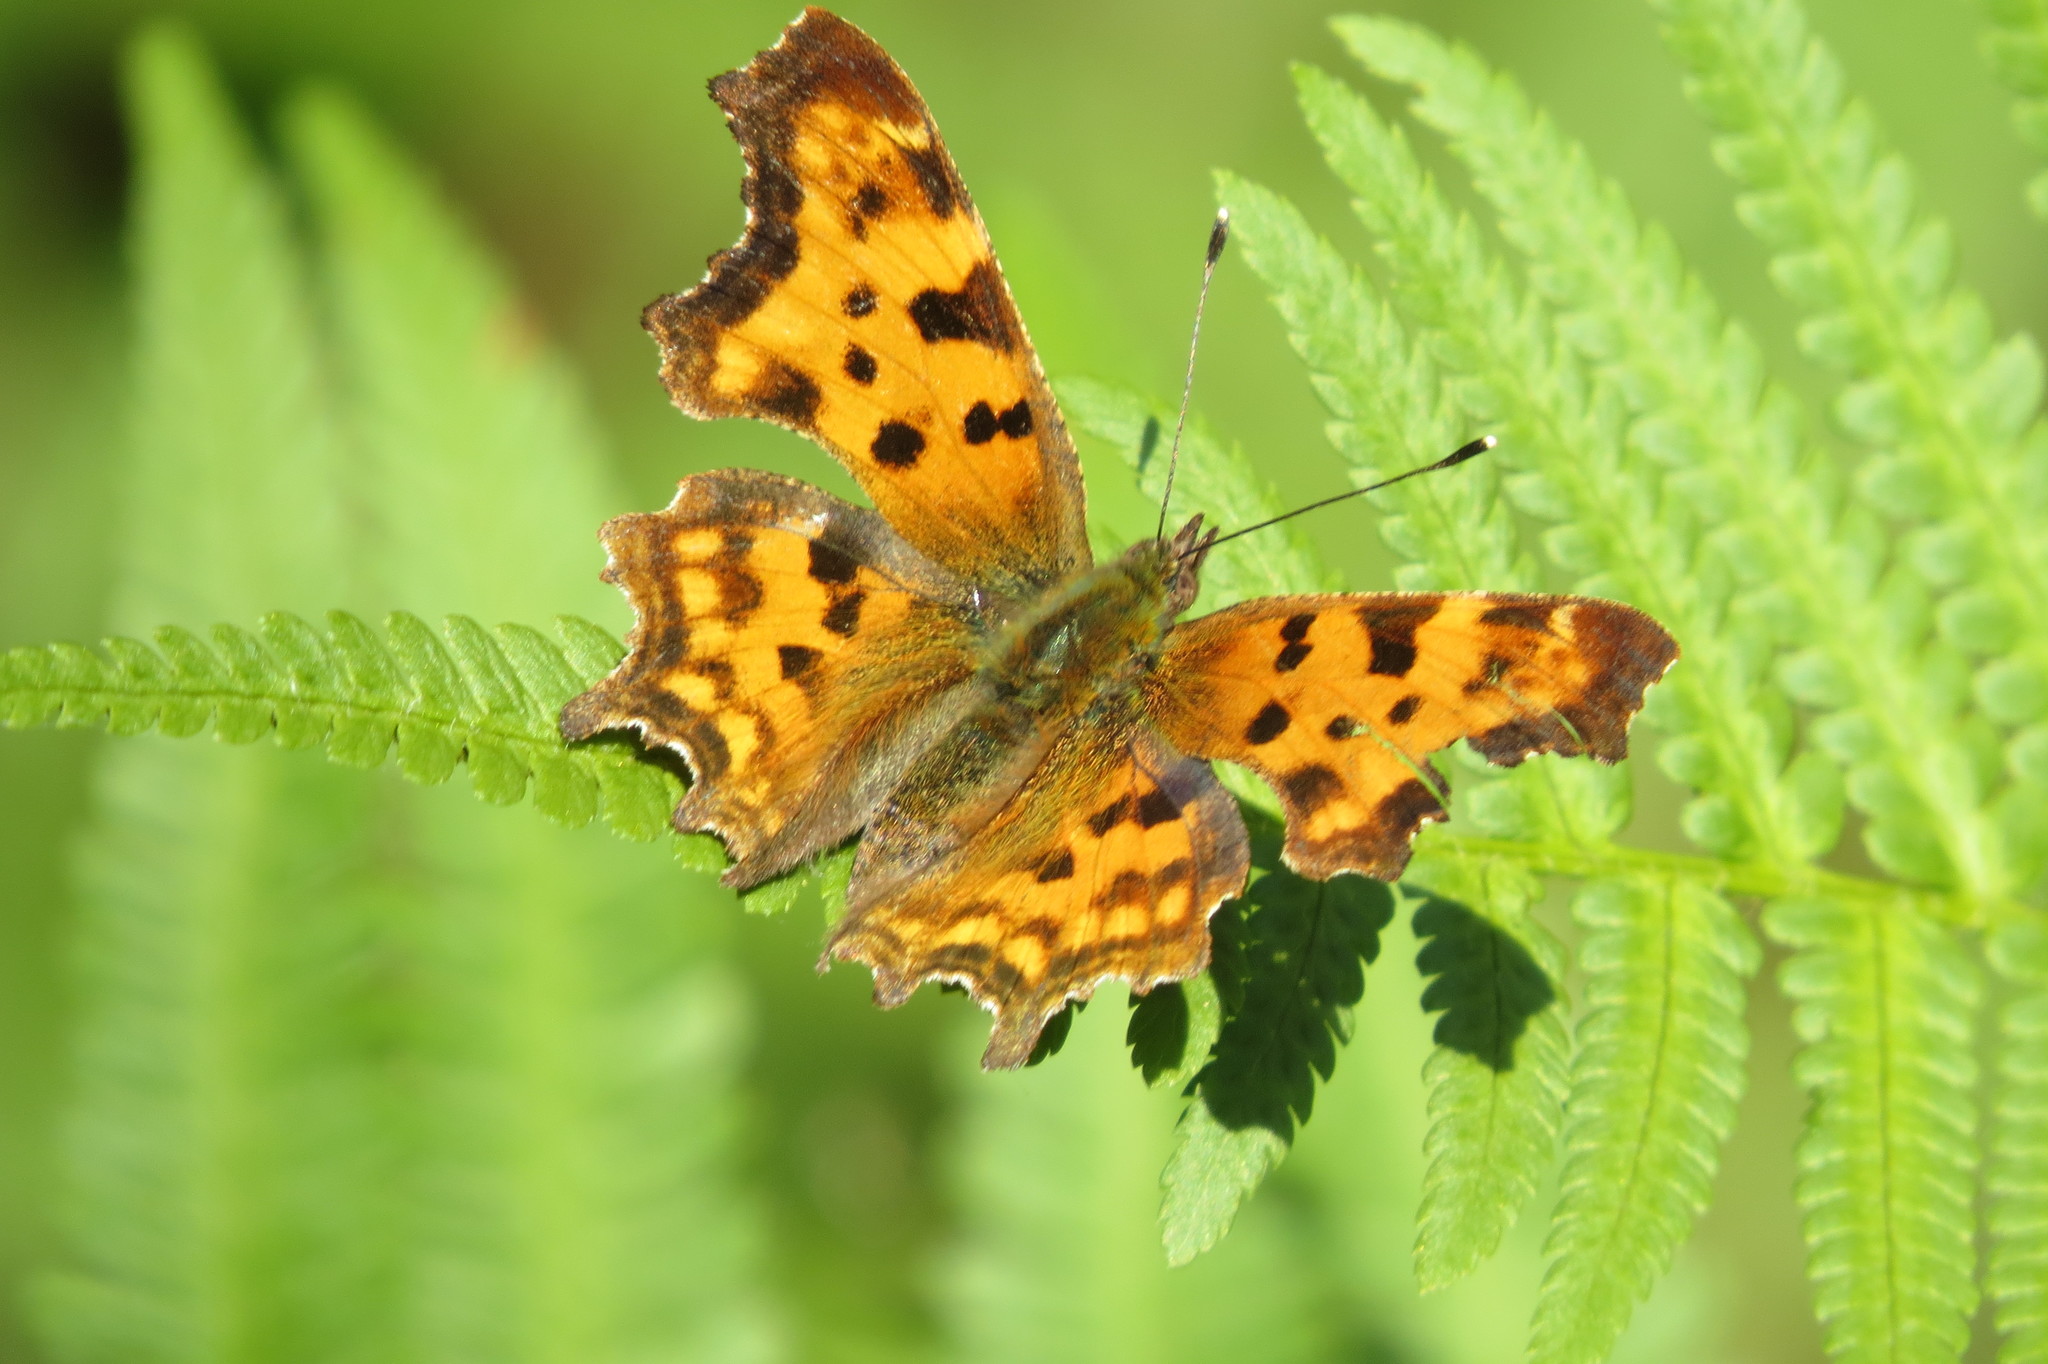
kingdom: Animalia
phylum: Arthropoda
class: Insecta
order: Lepidoptera
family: Nymphalidae
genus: Polygonia
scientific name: Polygonia c-album
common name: Comma
